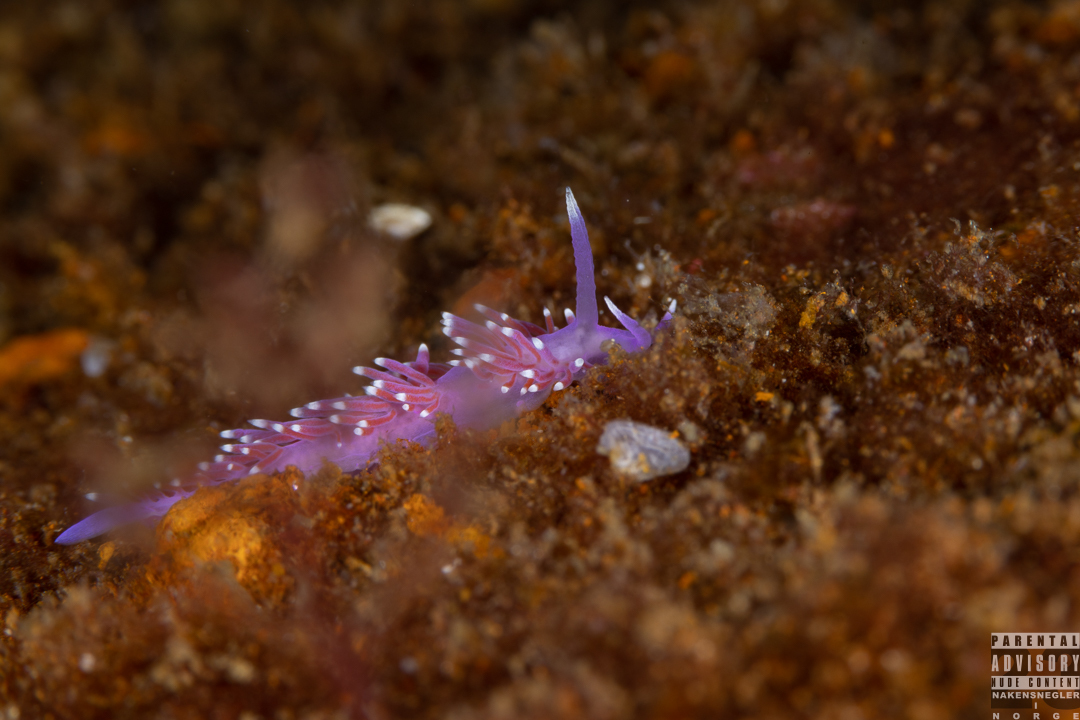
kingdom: Animalia
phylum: Mollusca
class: Gastropoda
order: Nudibranchia
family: Flabellinidae
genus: Edmundsella
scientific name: Edmundsella pedata
